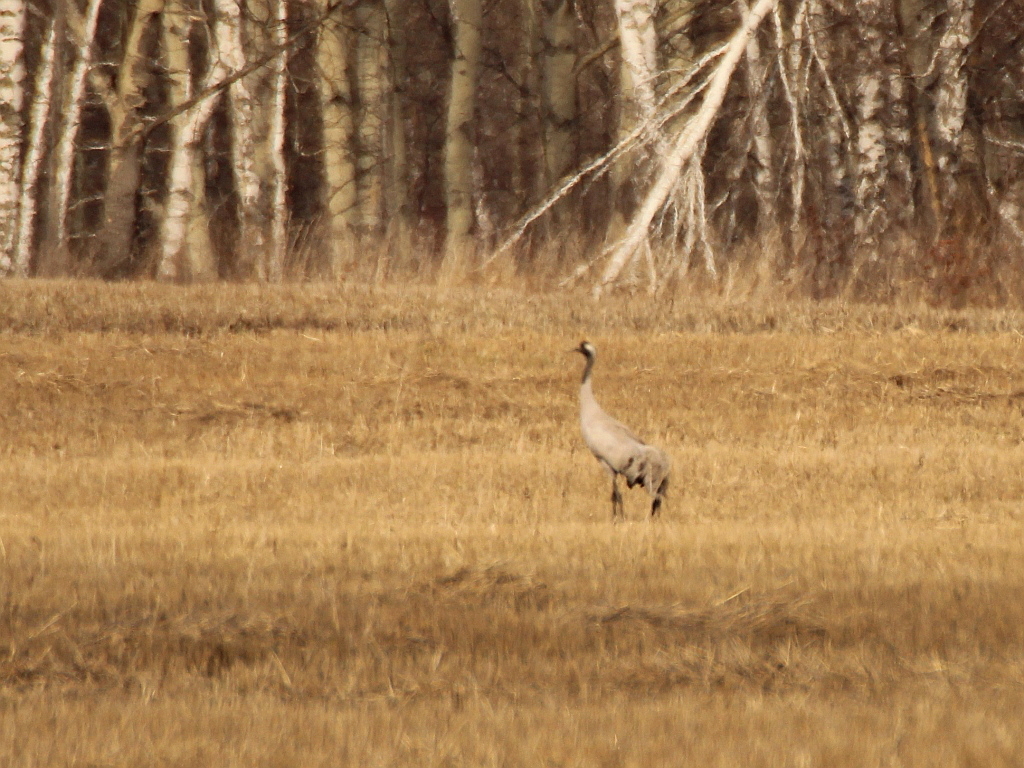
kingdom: Animalia
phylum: Chordata
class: Aves
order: Gruiformes
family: Gruidae
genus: Grus
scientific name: Grus grus
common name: Common crane
